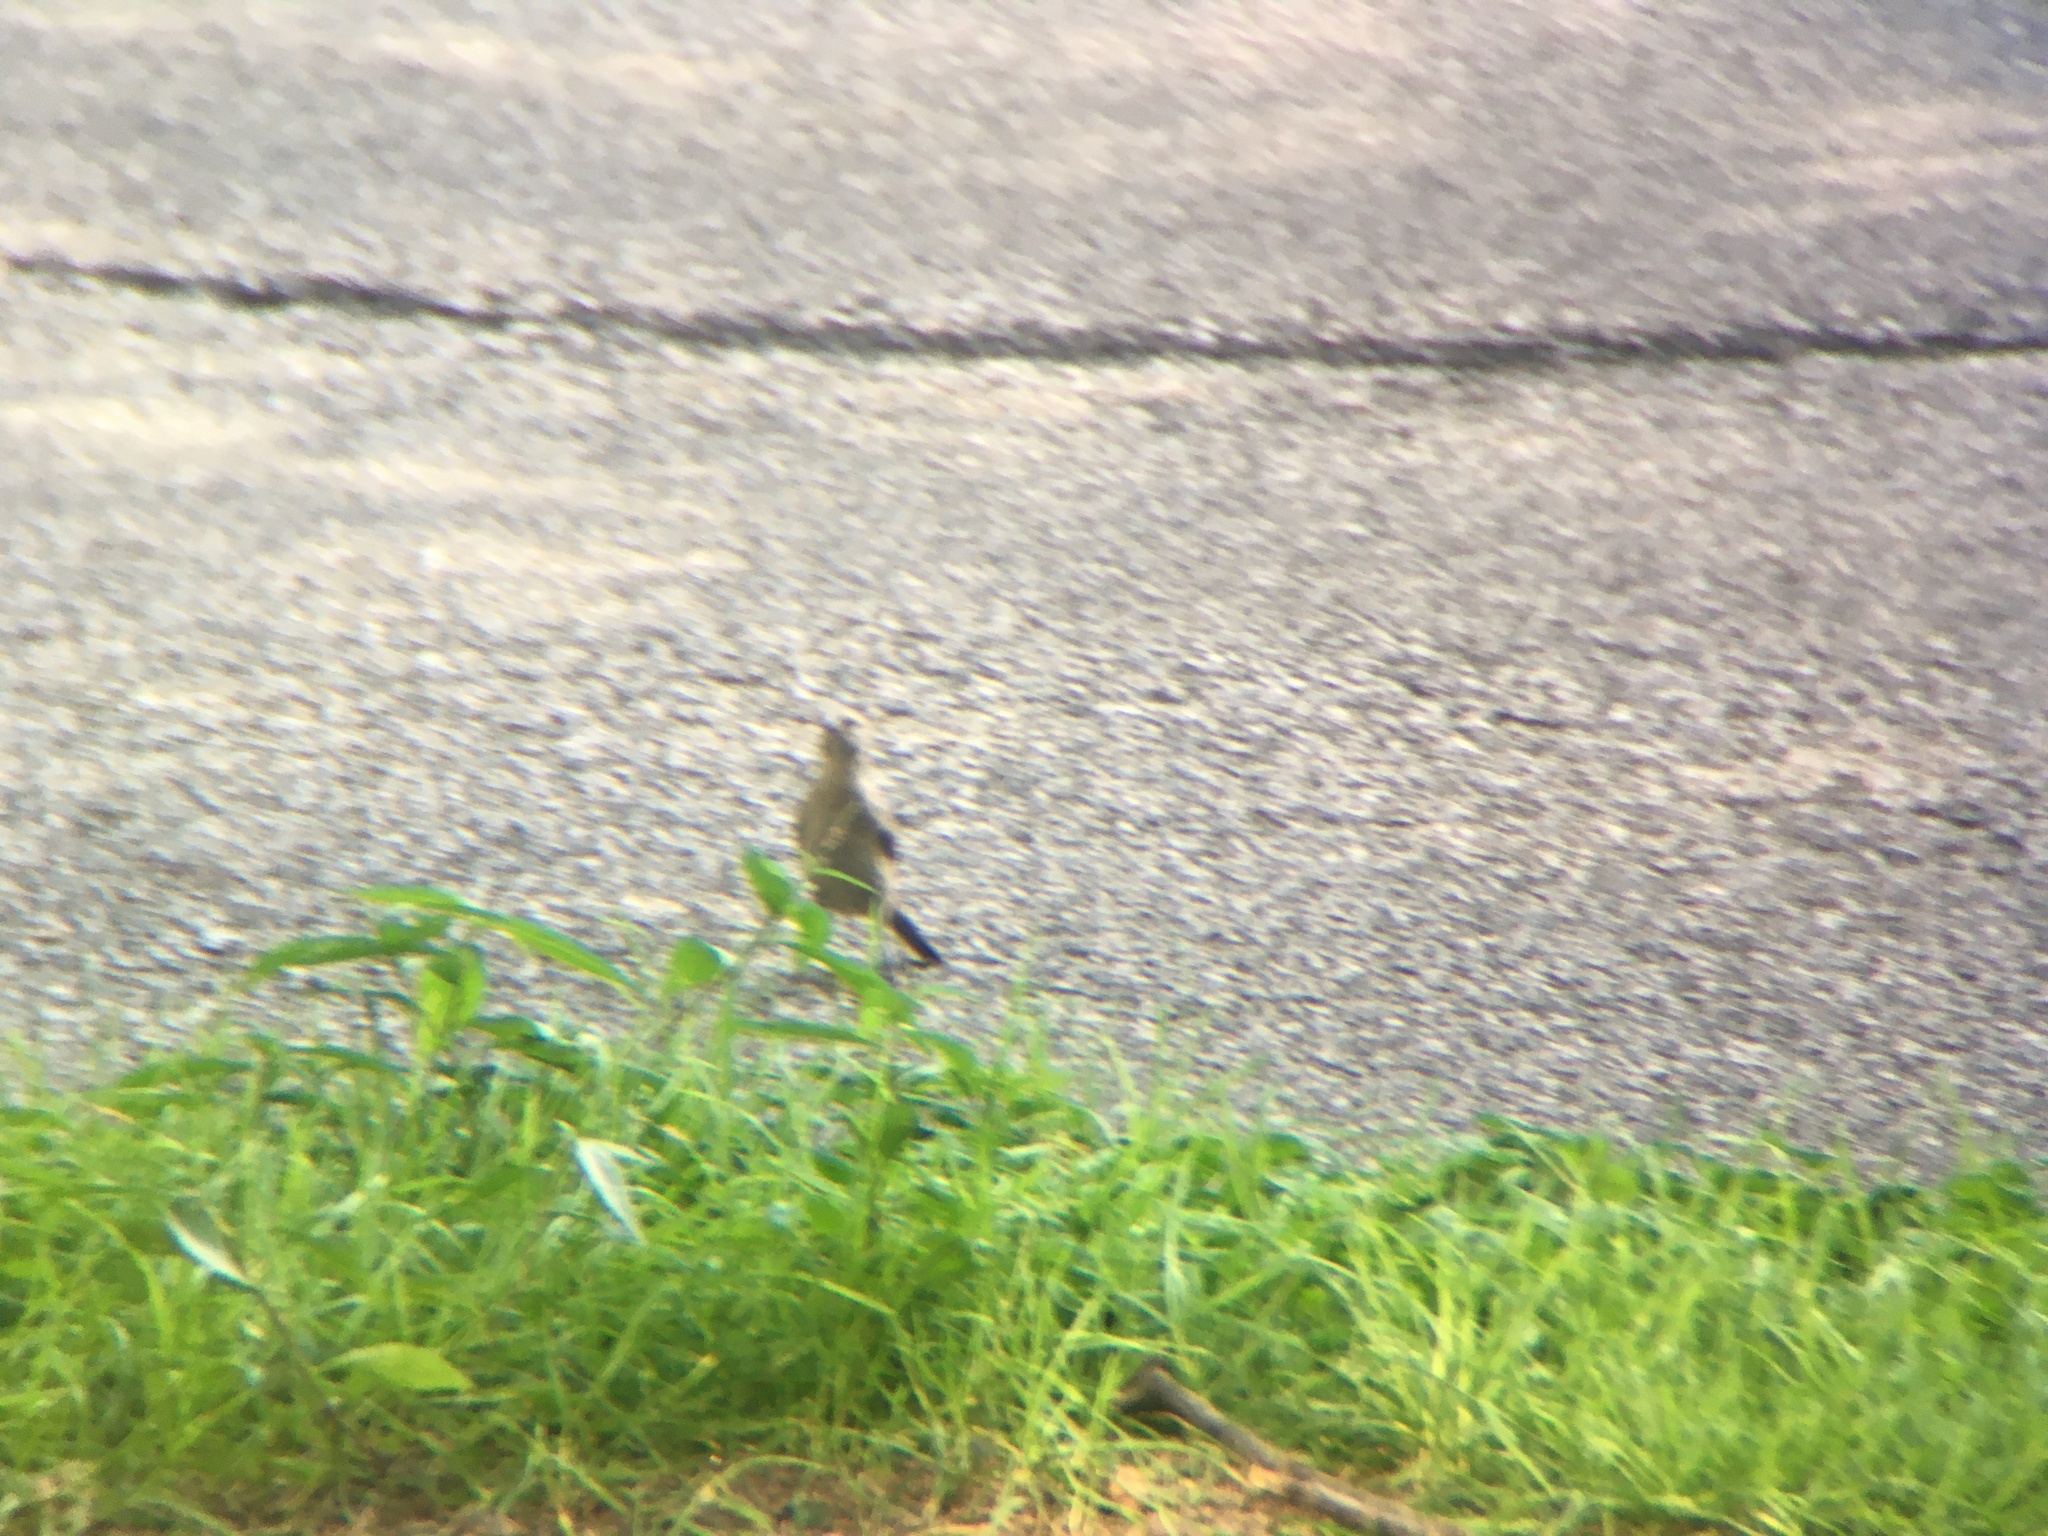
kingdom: Animalia
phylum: Chordata
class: Aves
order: Passeriformes
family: Icteridae
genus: Molothrus
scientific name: Molothrus ater
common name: Brown-headed cowbird
